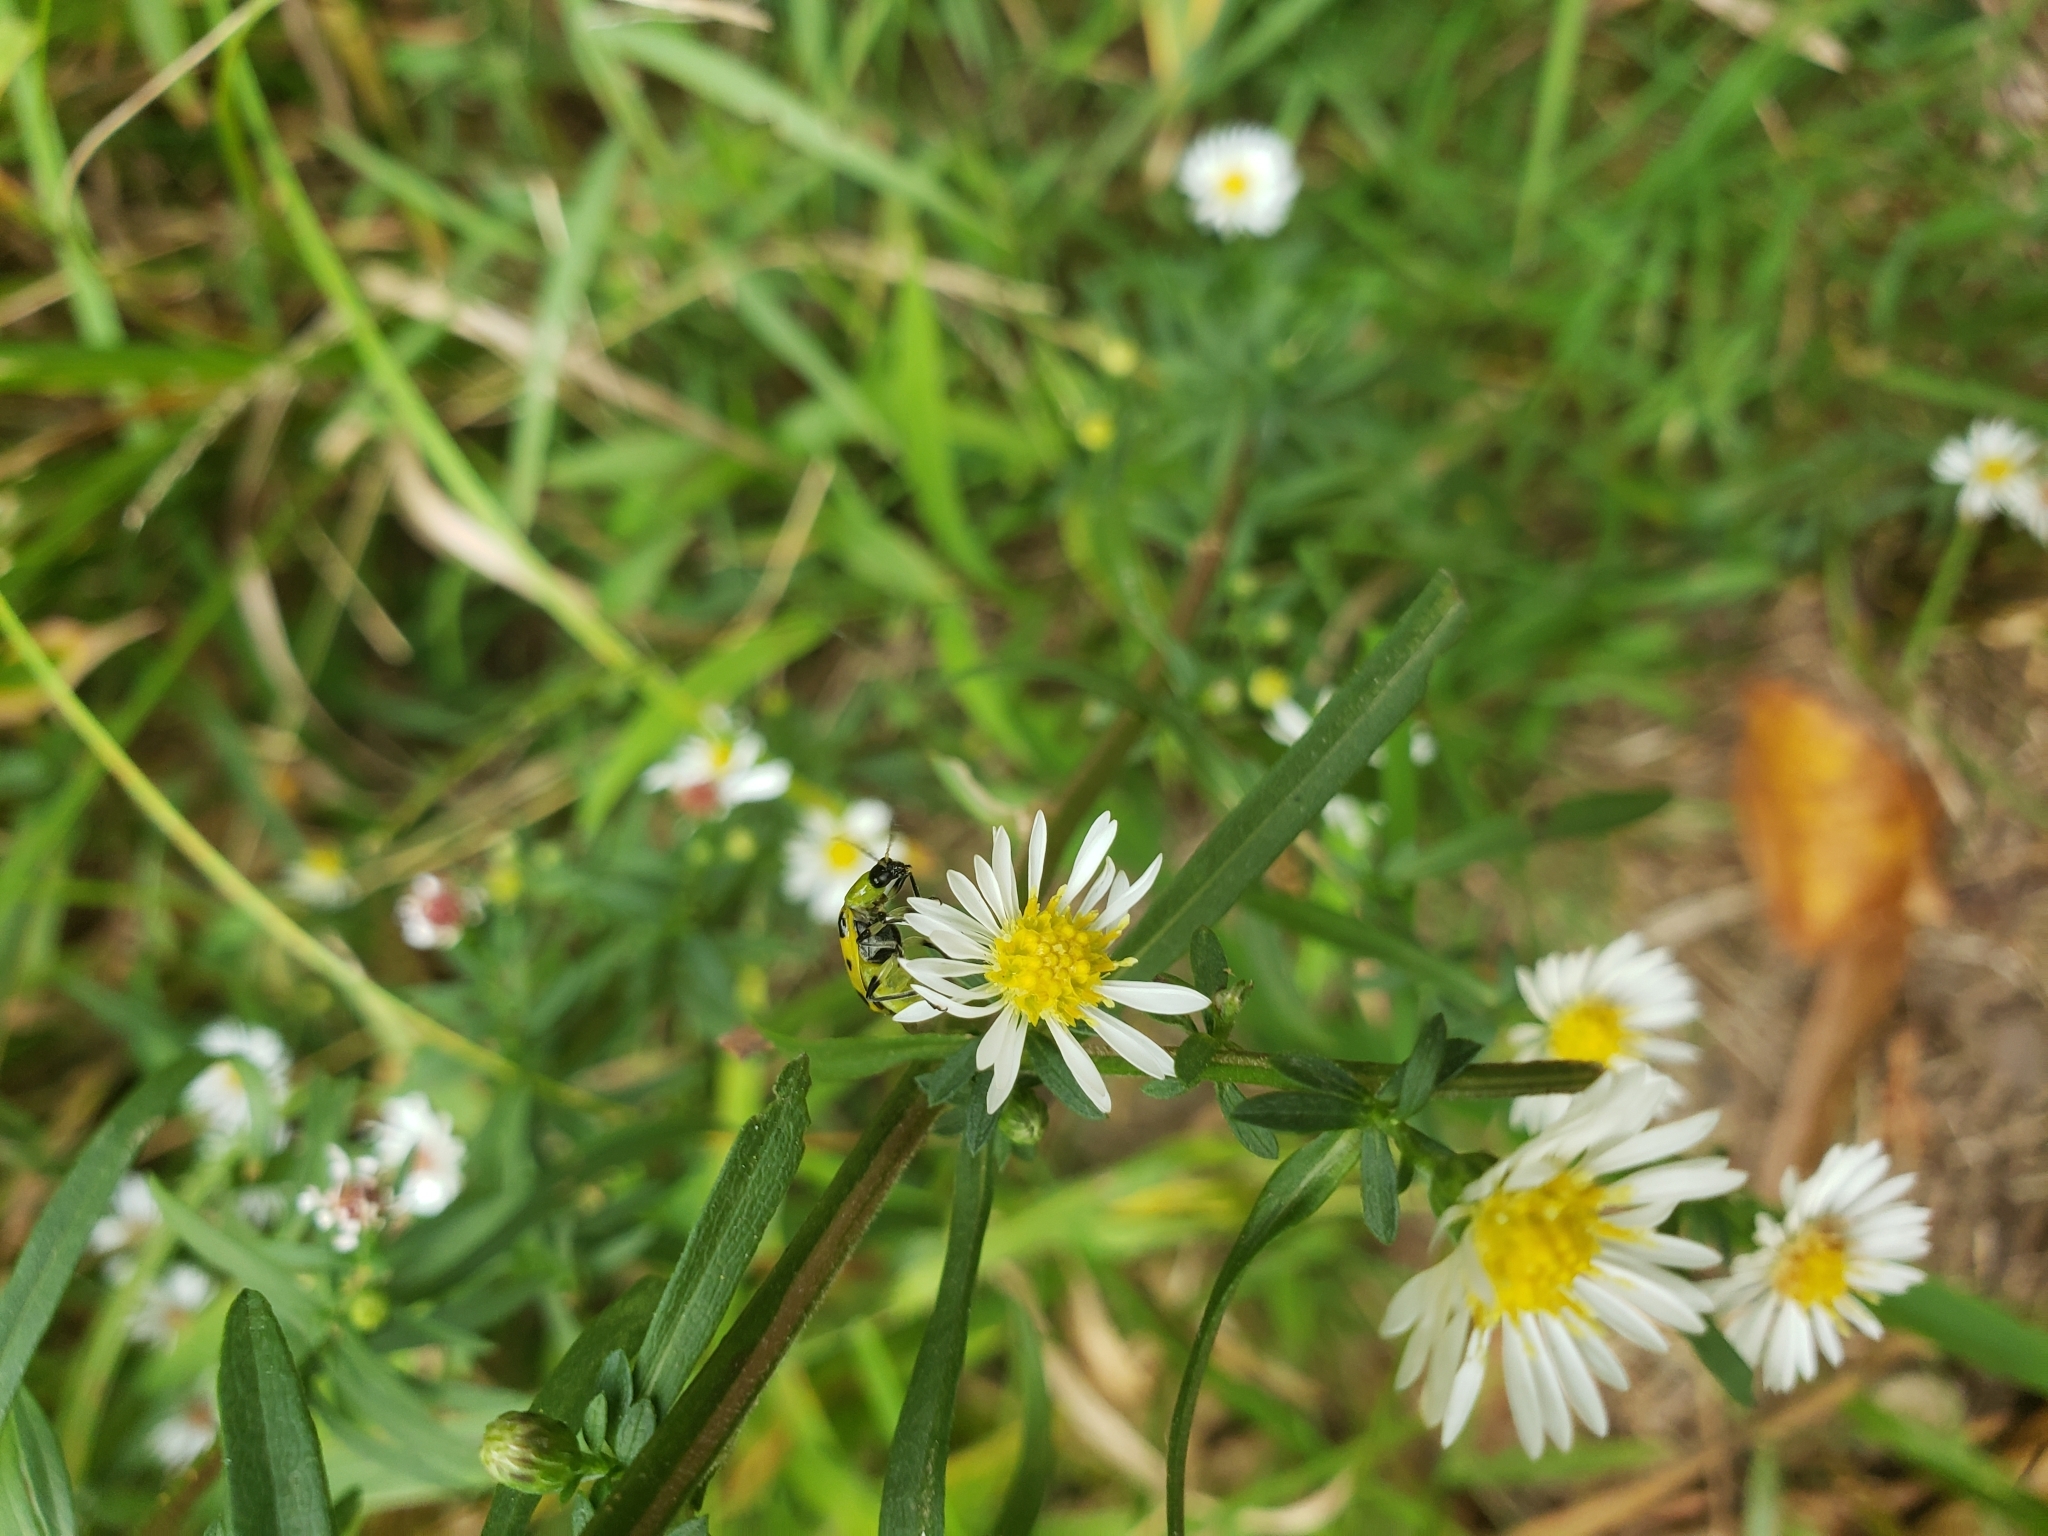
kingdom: Animalia
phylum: Arthropoda
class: Insecta
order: Coleoptera
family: Chrysomelidae
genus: Diabrotica
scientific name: Diabrotica undecimpunctata
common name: Spotted cucumber beetle
